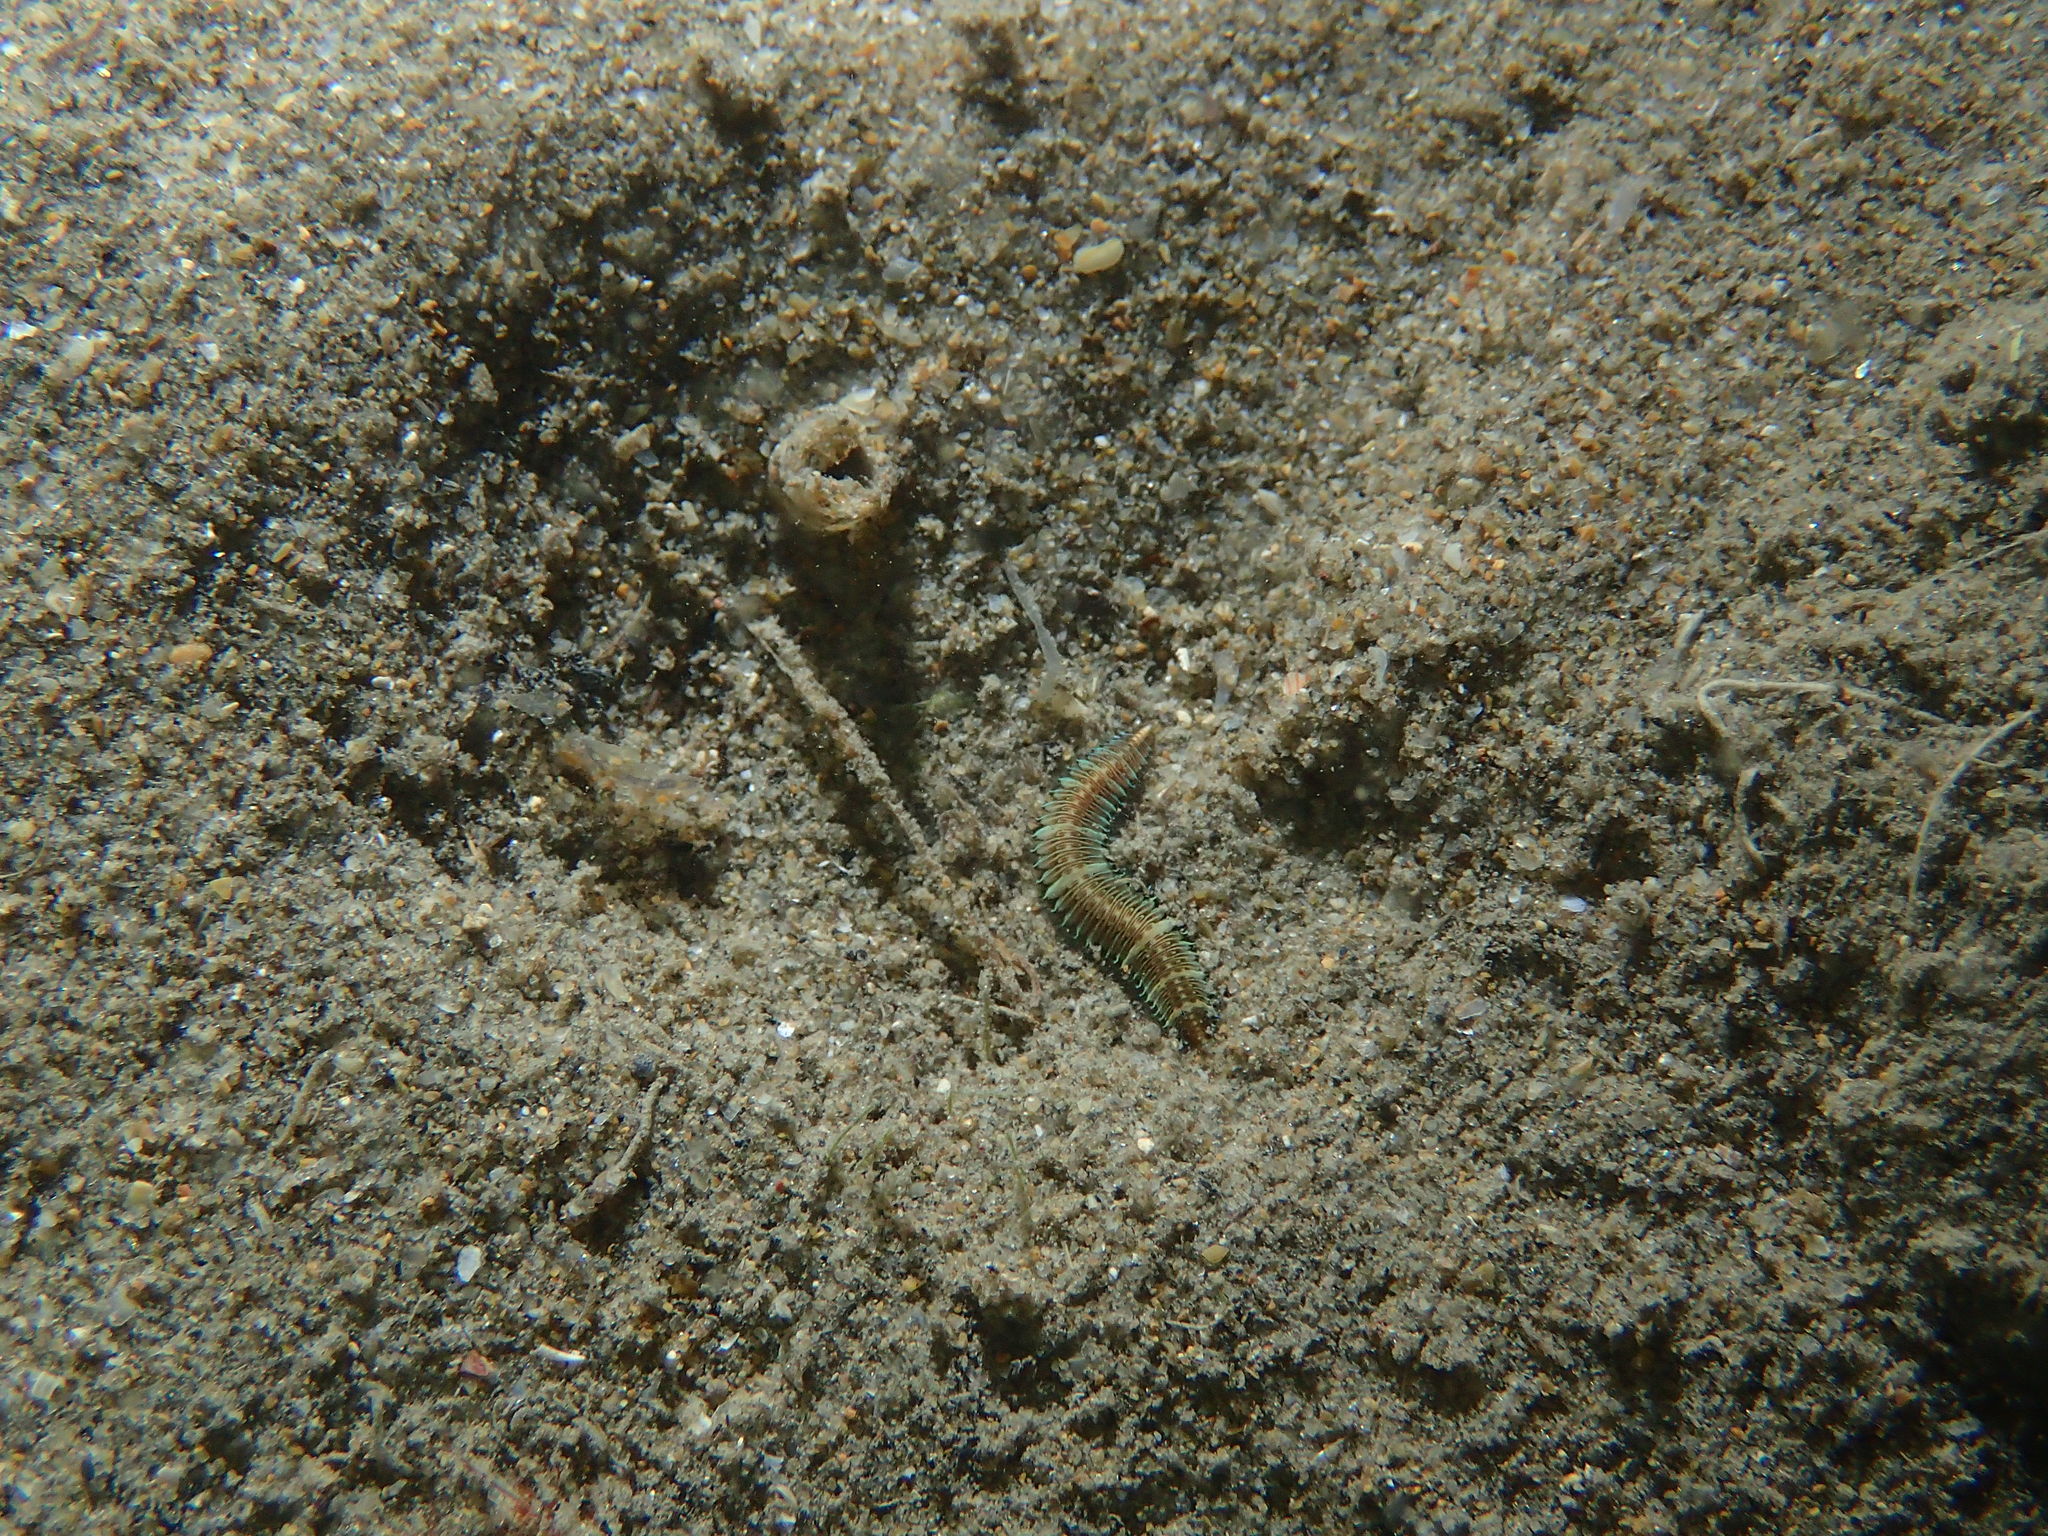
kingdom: Animalia
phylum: Annelida
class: Polychaeta
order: Phyllodocida
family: Hesionidae
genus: Oxydromus
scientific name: Oxydromus flexuosus
